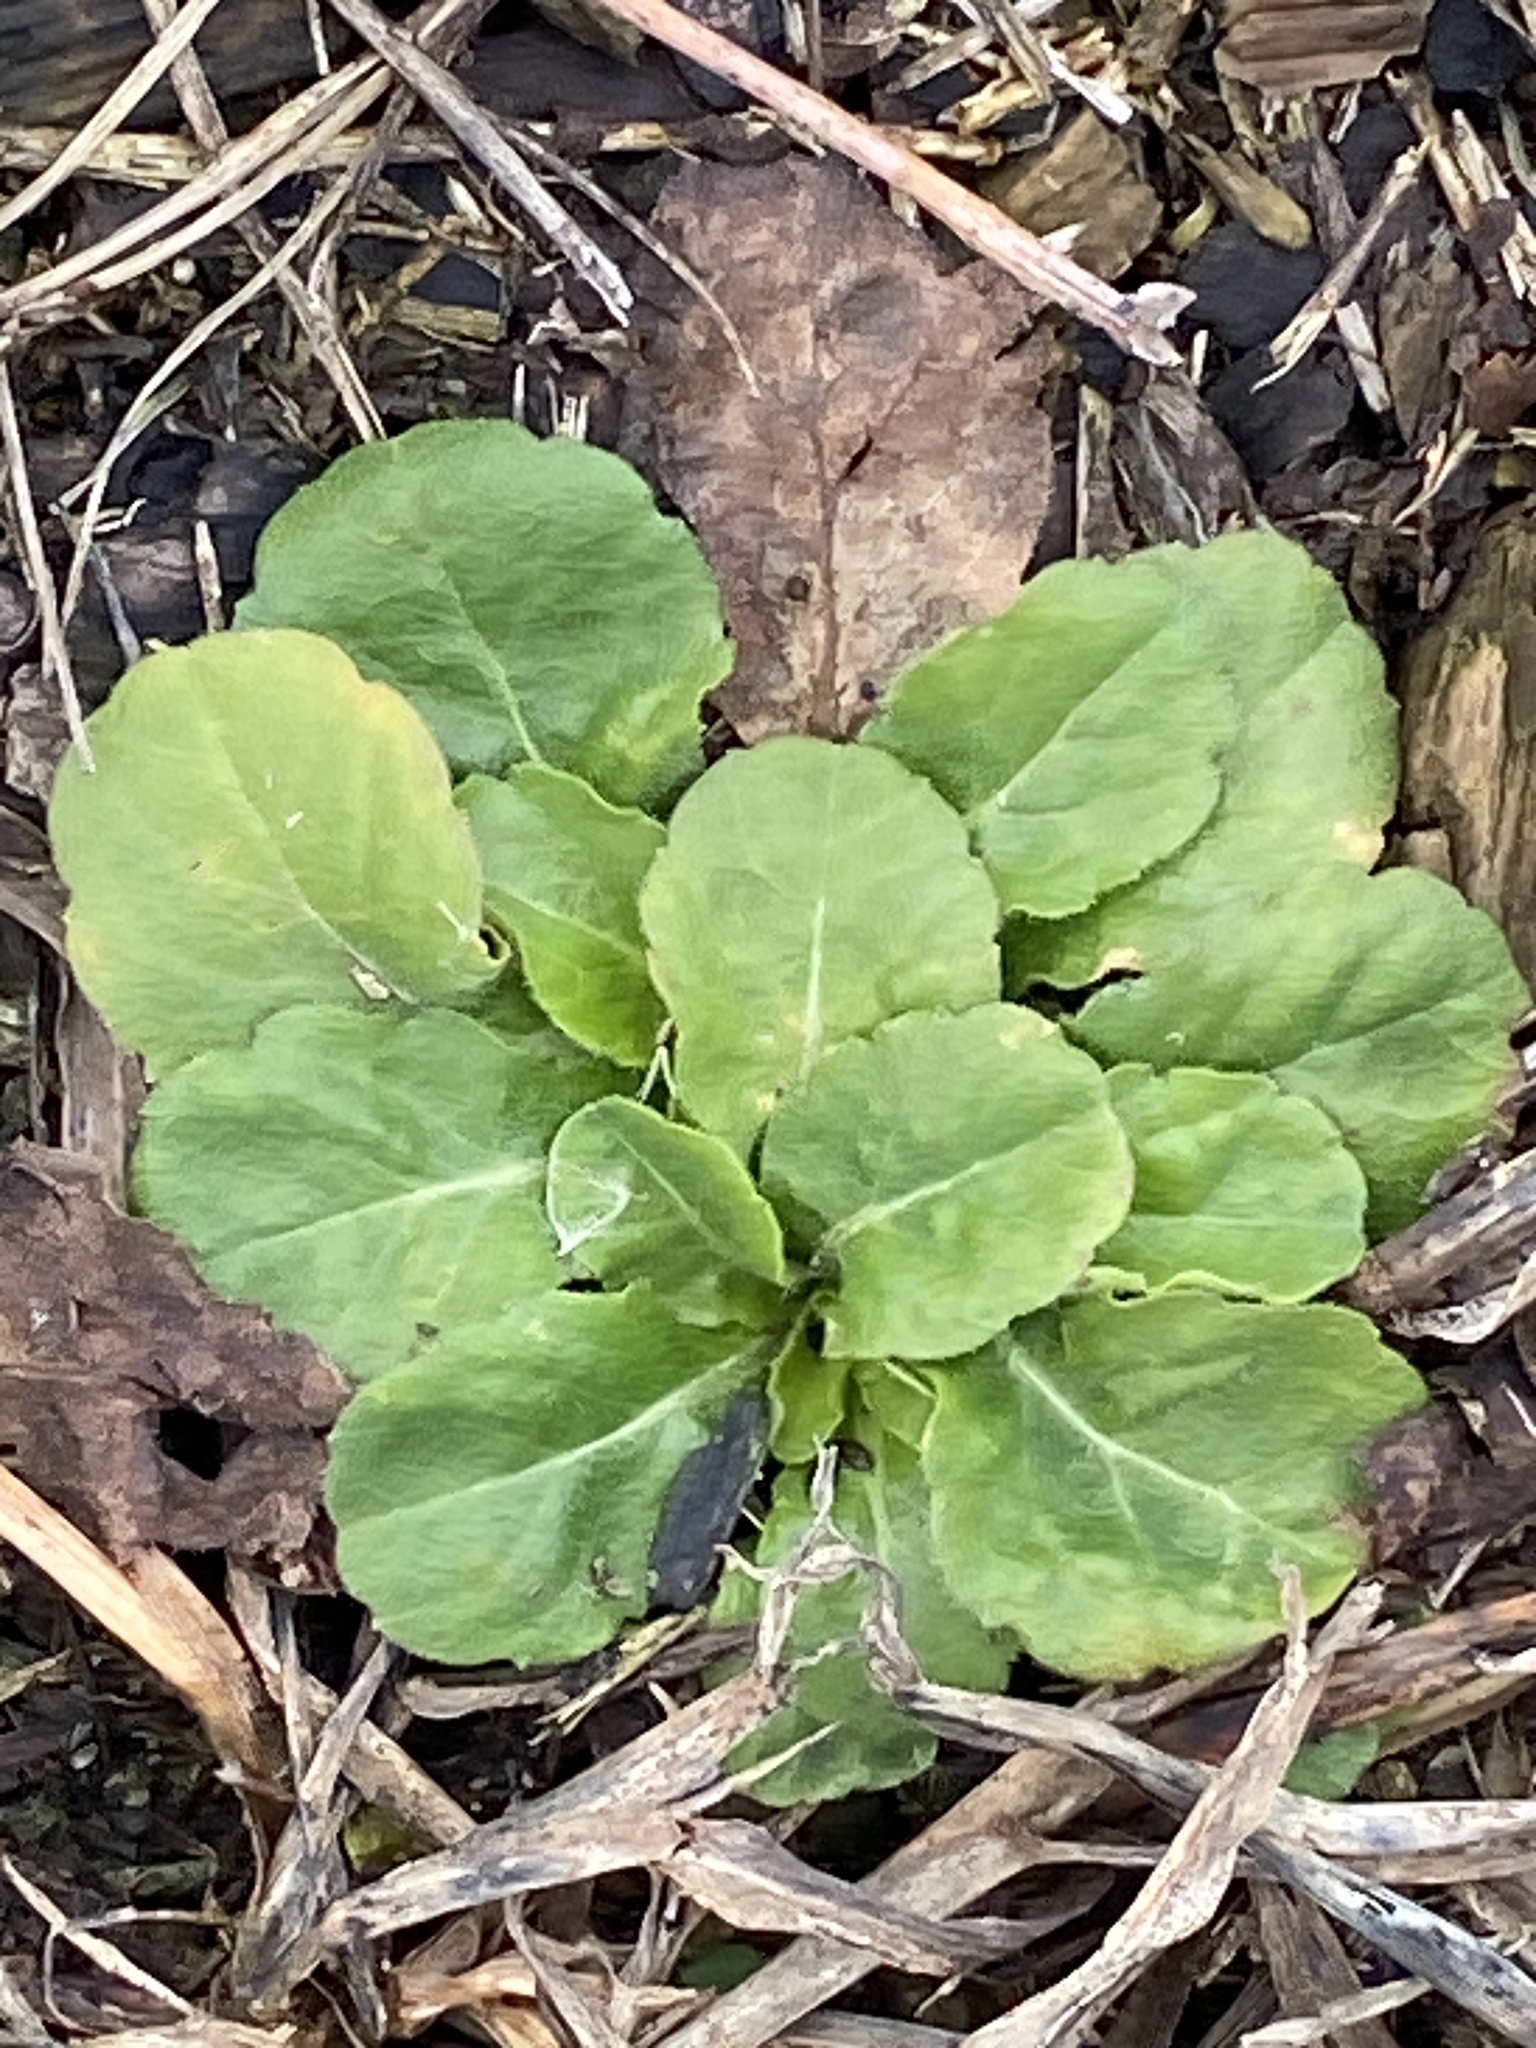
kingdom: Plantae
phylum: Tracheophyta
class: Magnoliopsida
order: Asterales
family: Asteraceae
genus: Bellis
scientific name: Bellis perennis
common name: Lawndaisy
